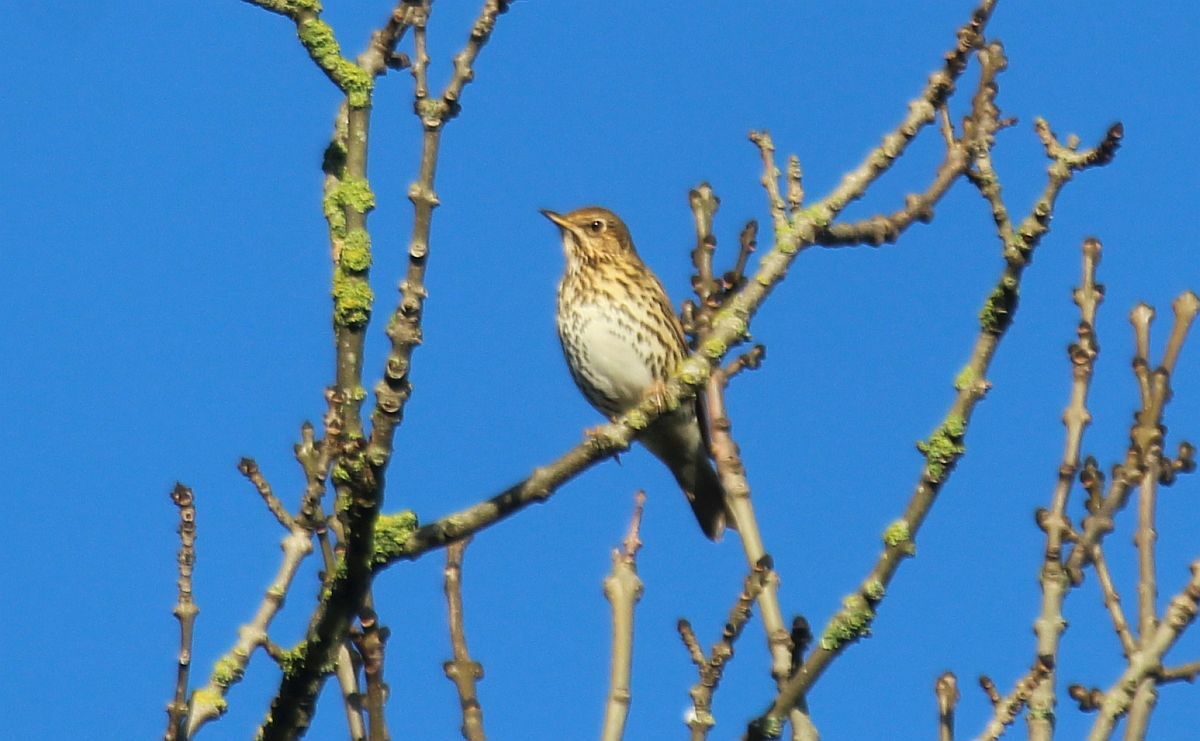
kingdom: Animalia
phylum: Chordata
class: Aves
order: Passeriformes
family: Turdidae
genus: Turdus
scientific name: Turdus philomelos
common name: Song thrush
